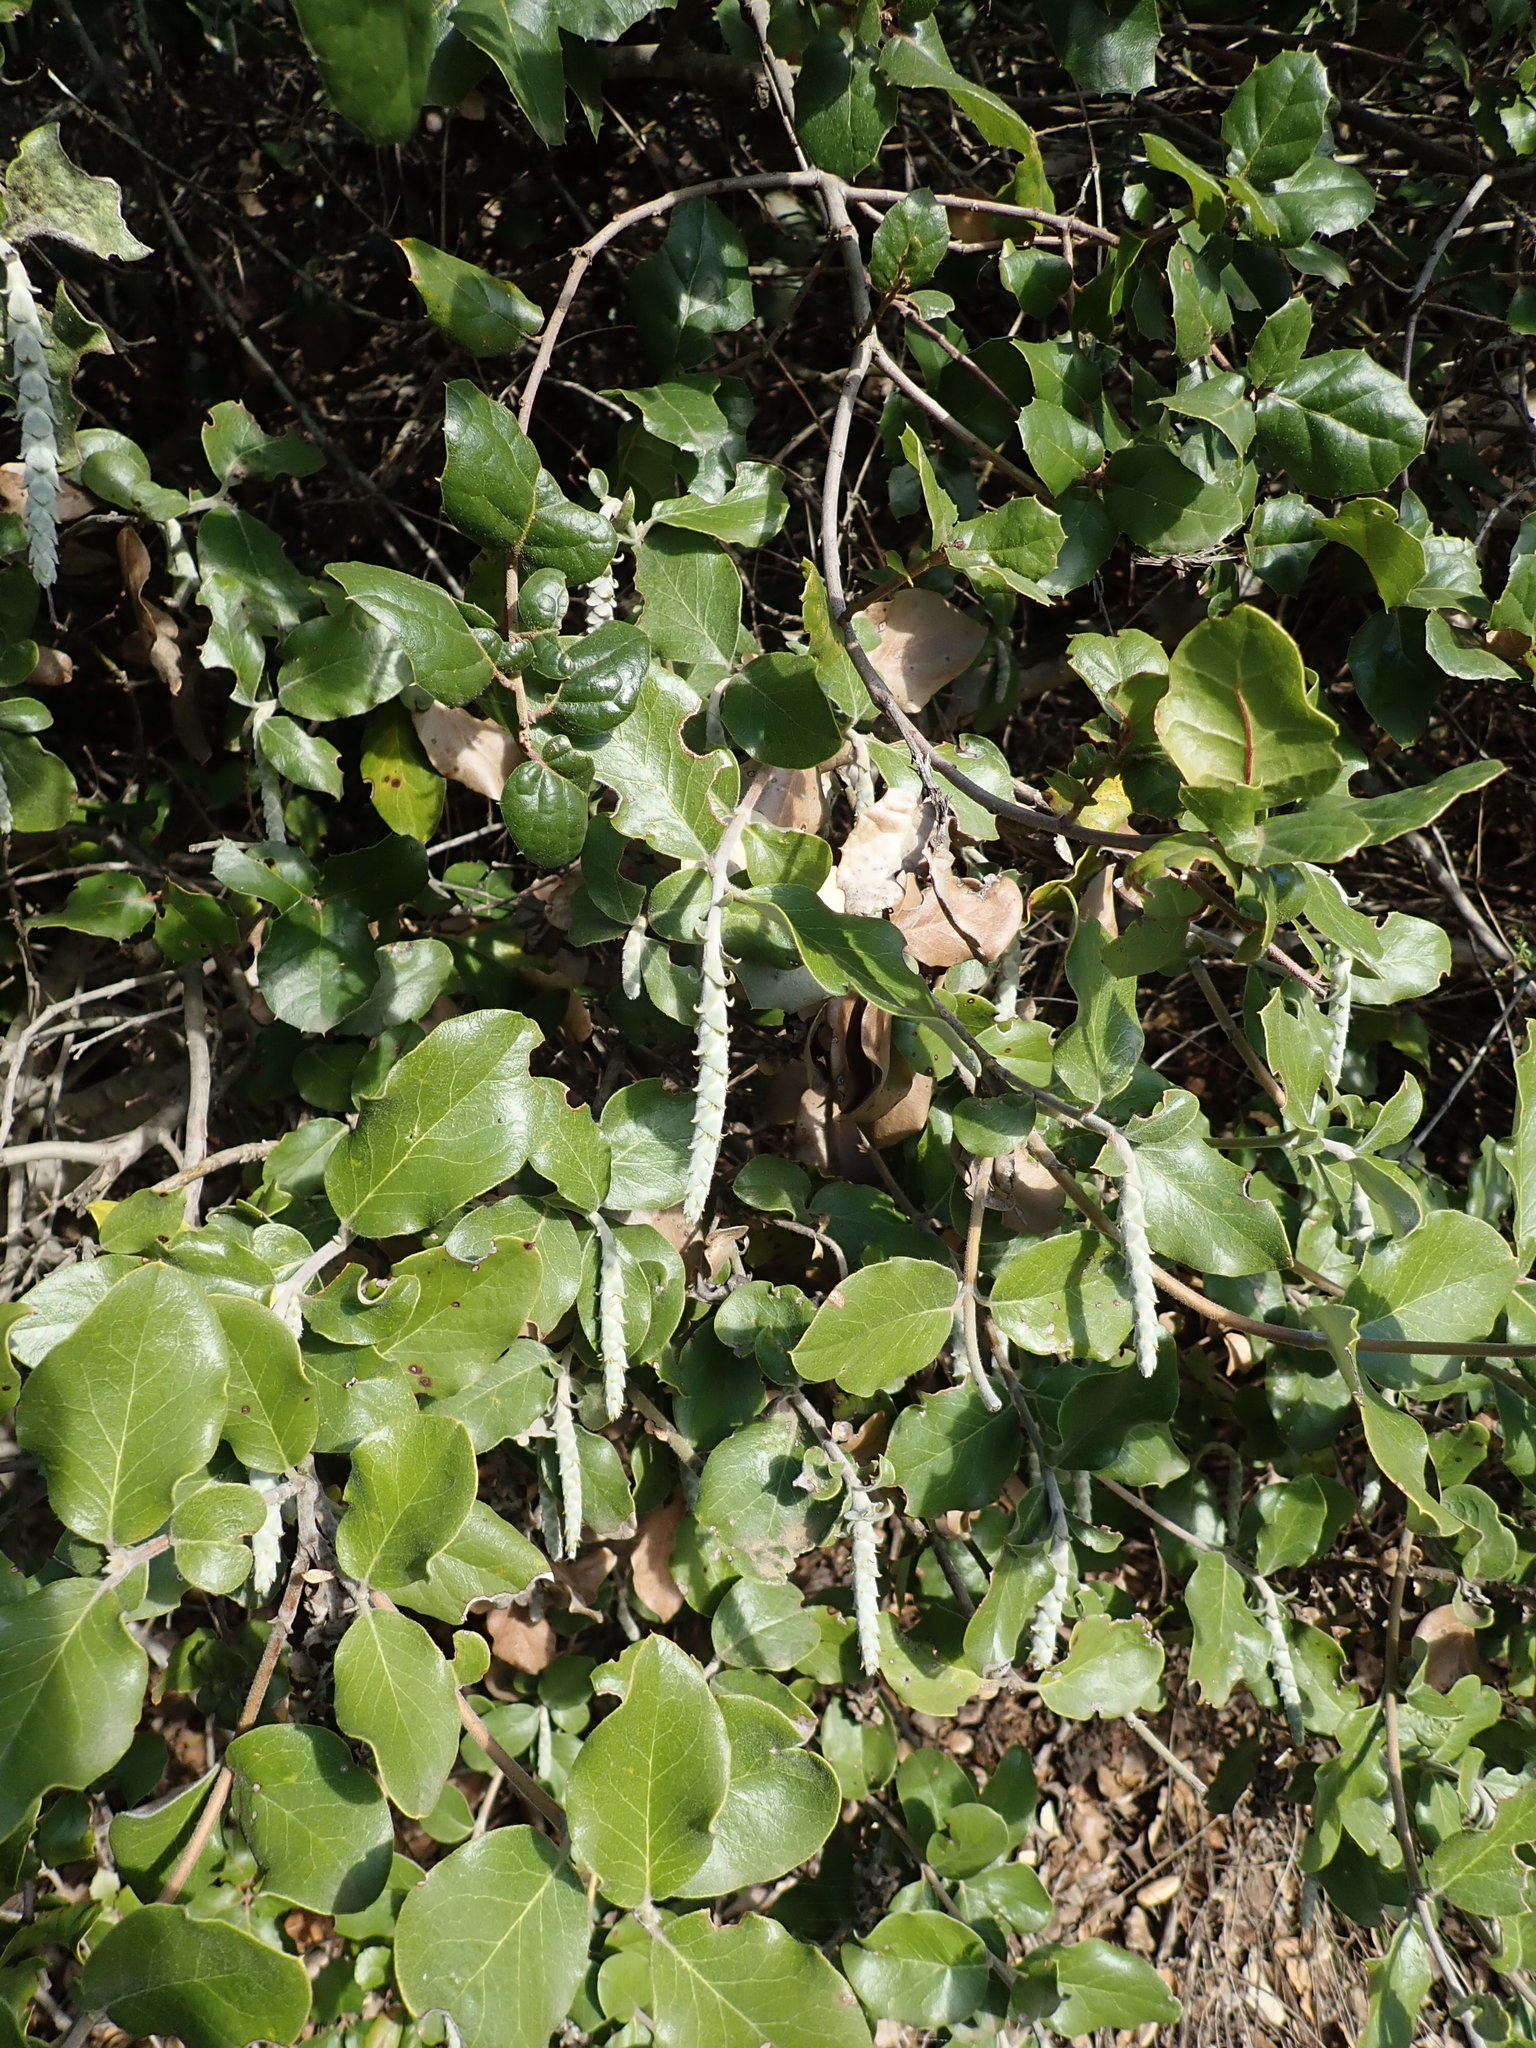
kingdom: Plantae
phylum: Tracheophyta
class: Magnoliopsida
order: Garryales
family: Garryaceae
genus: Garrya
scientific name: Garrya elliptica
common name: Silk-tassel
